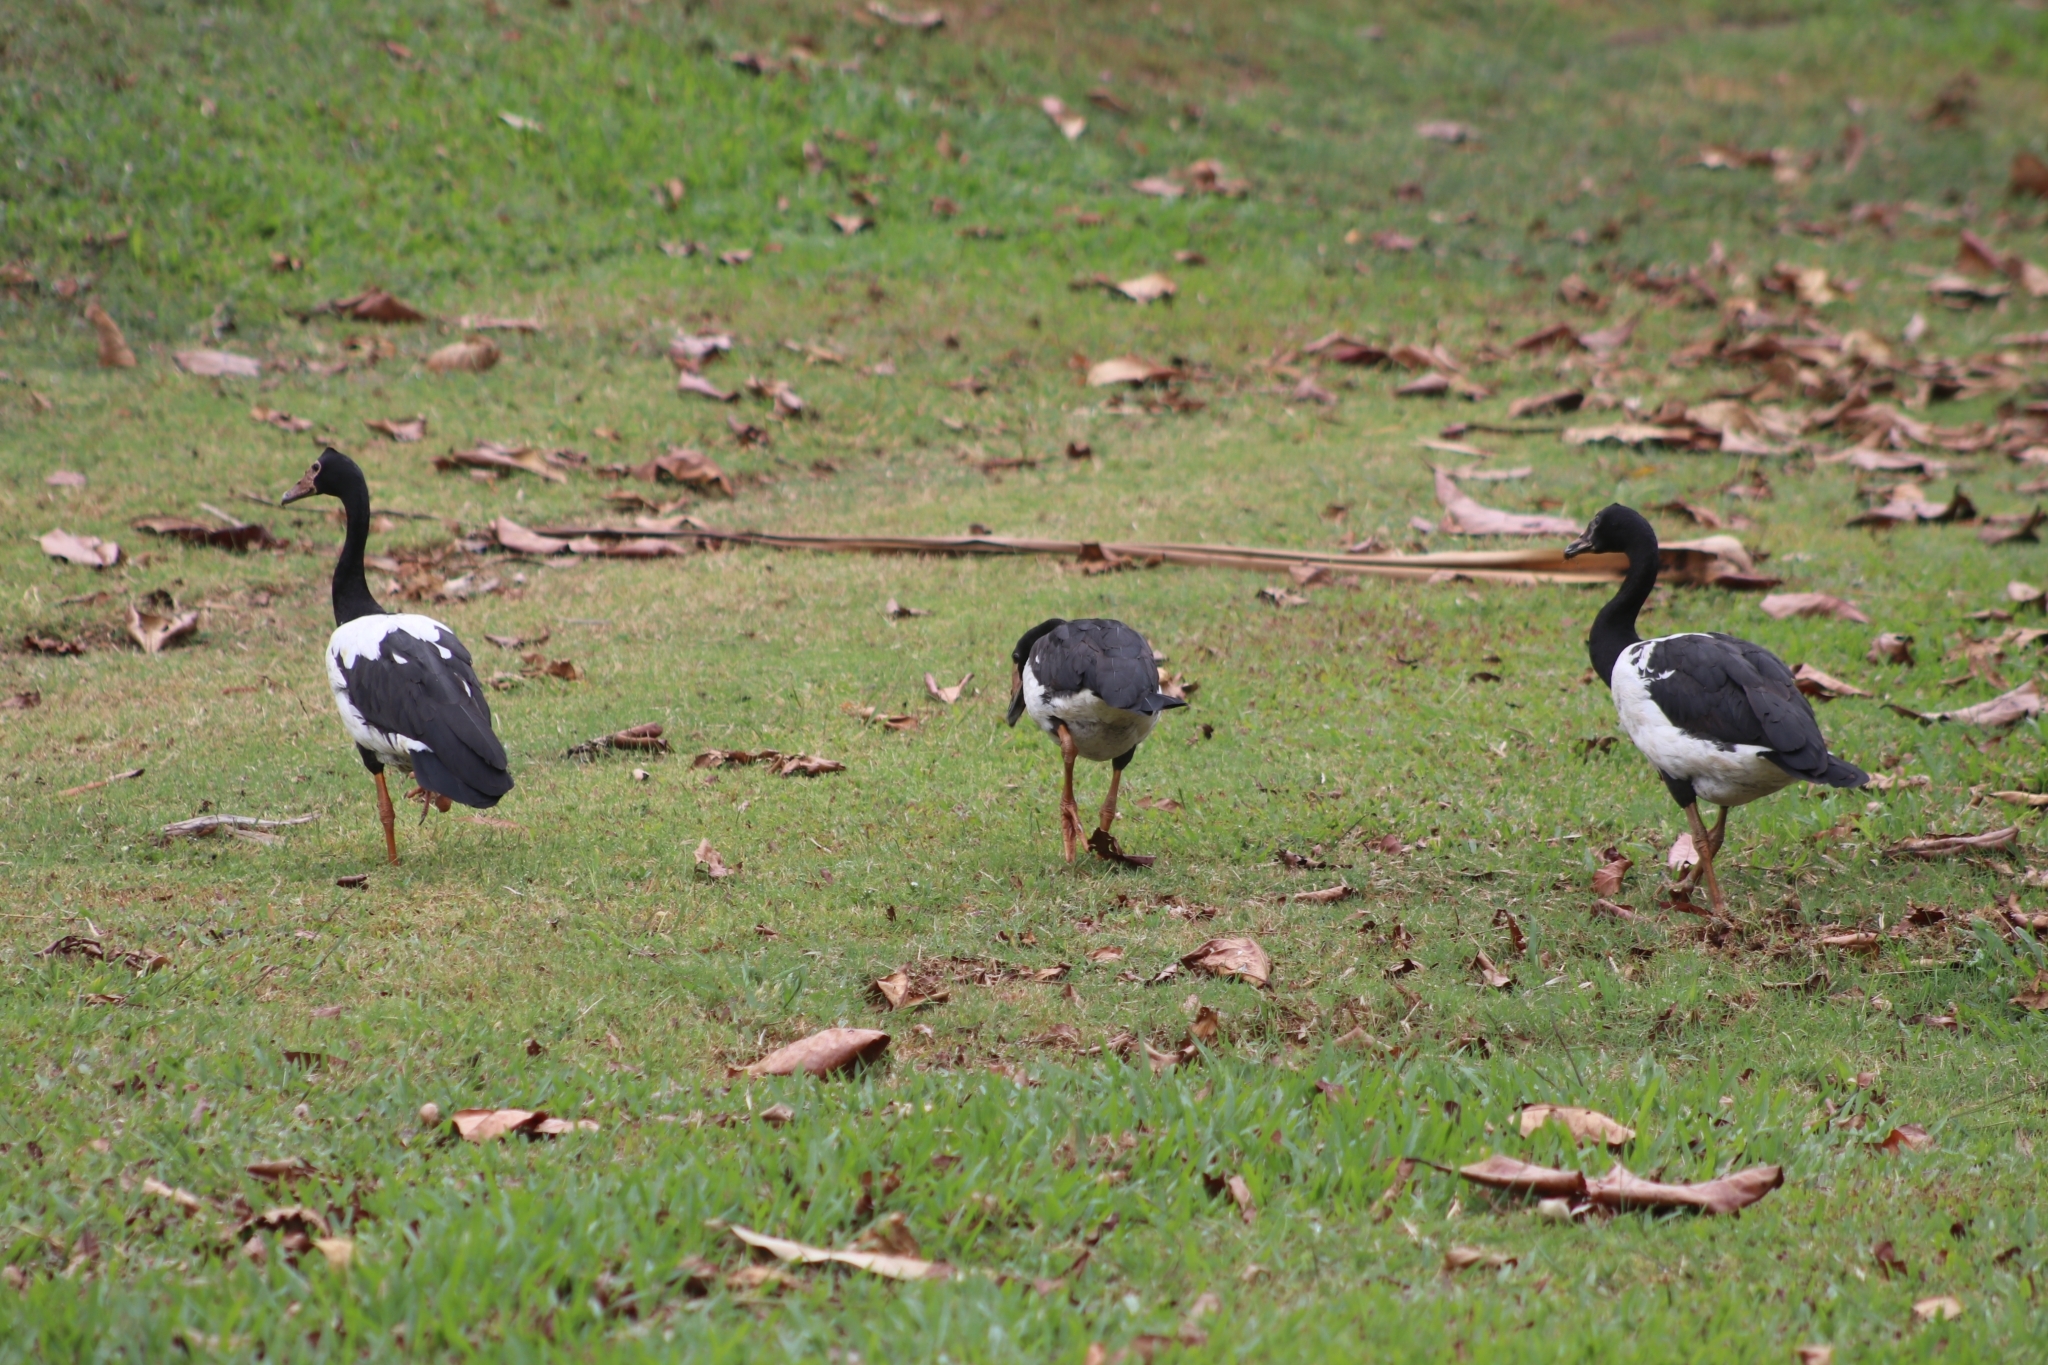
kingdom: Animalia
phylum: Chordata
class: Aves
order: Anseriformes
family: Anseranatidae
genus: Anseranas
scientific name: Anseranas semipalmata
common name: Magpie goose
